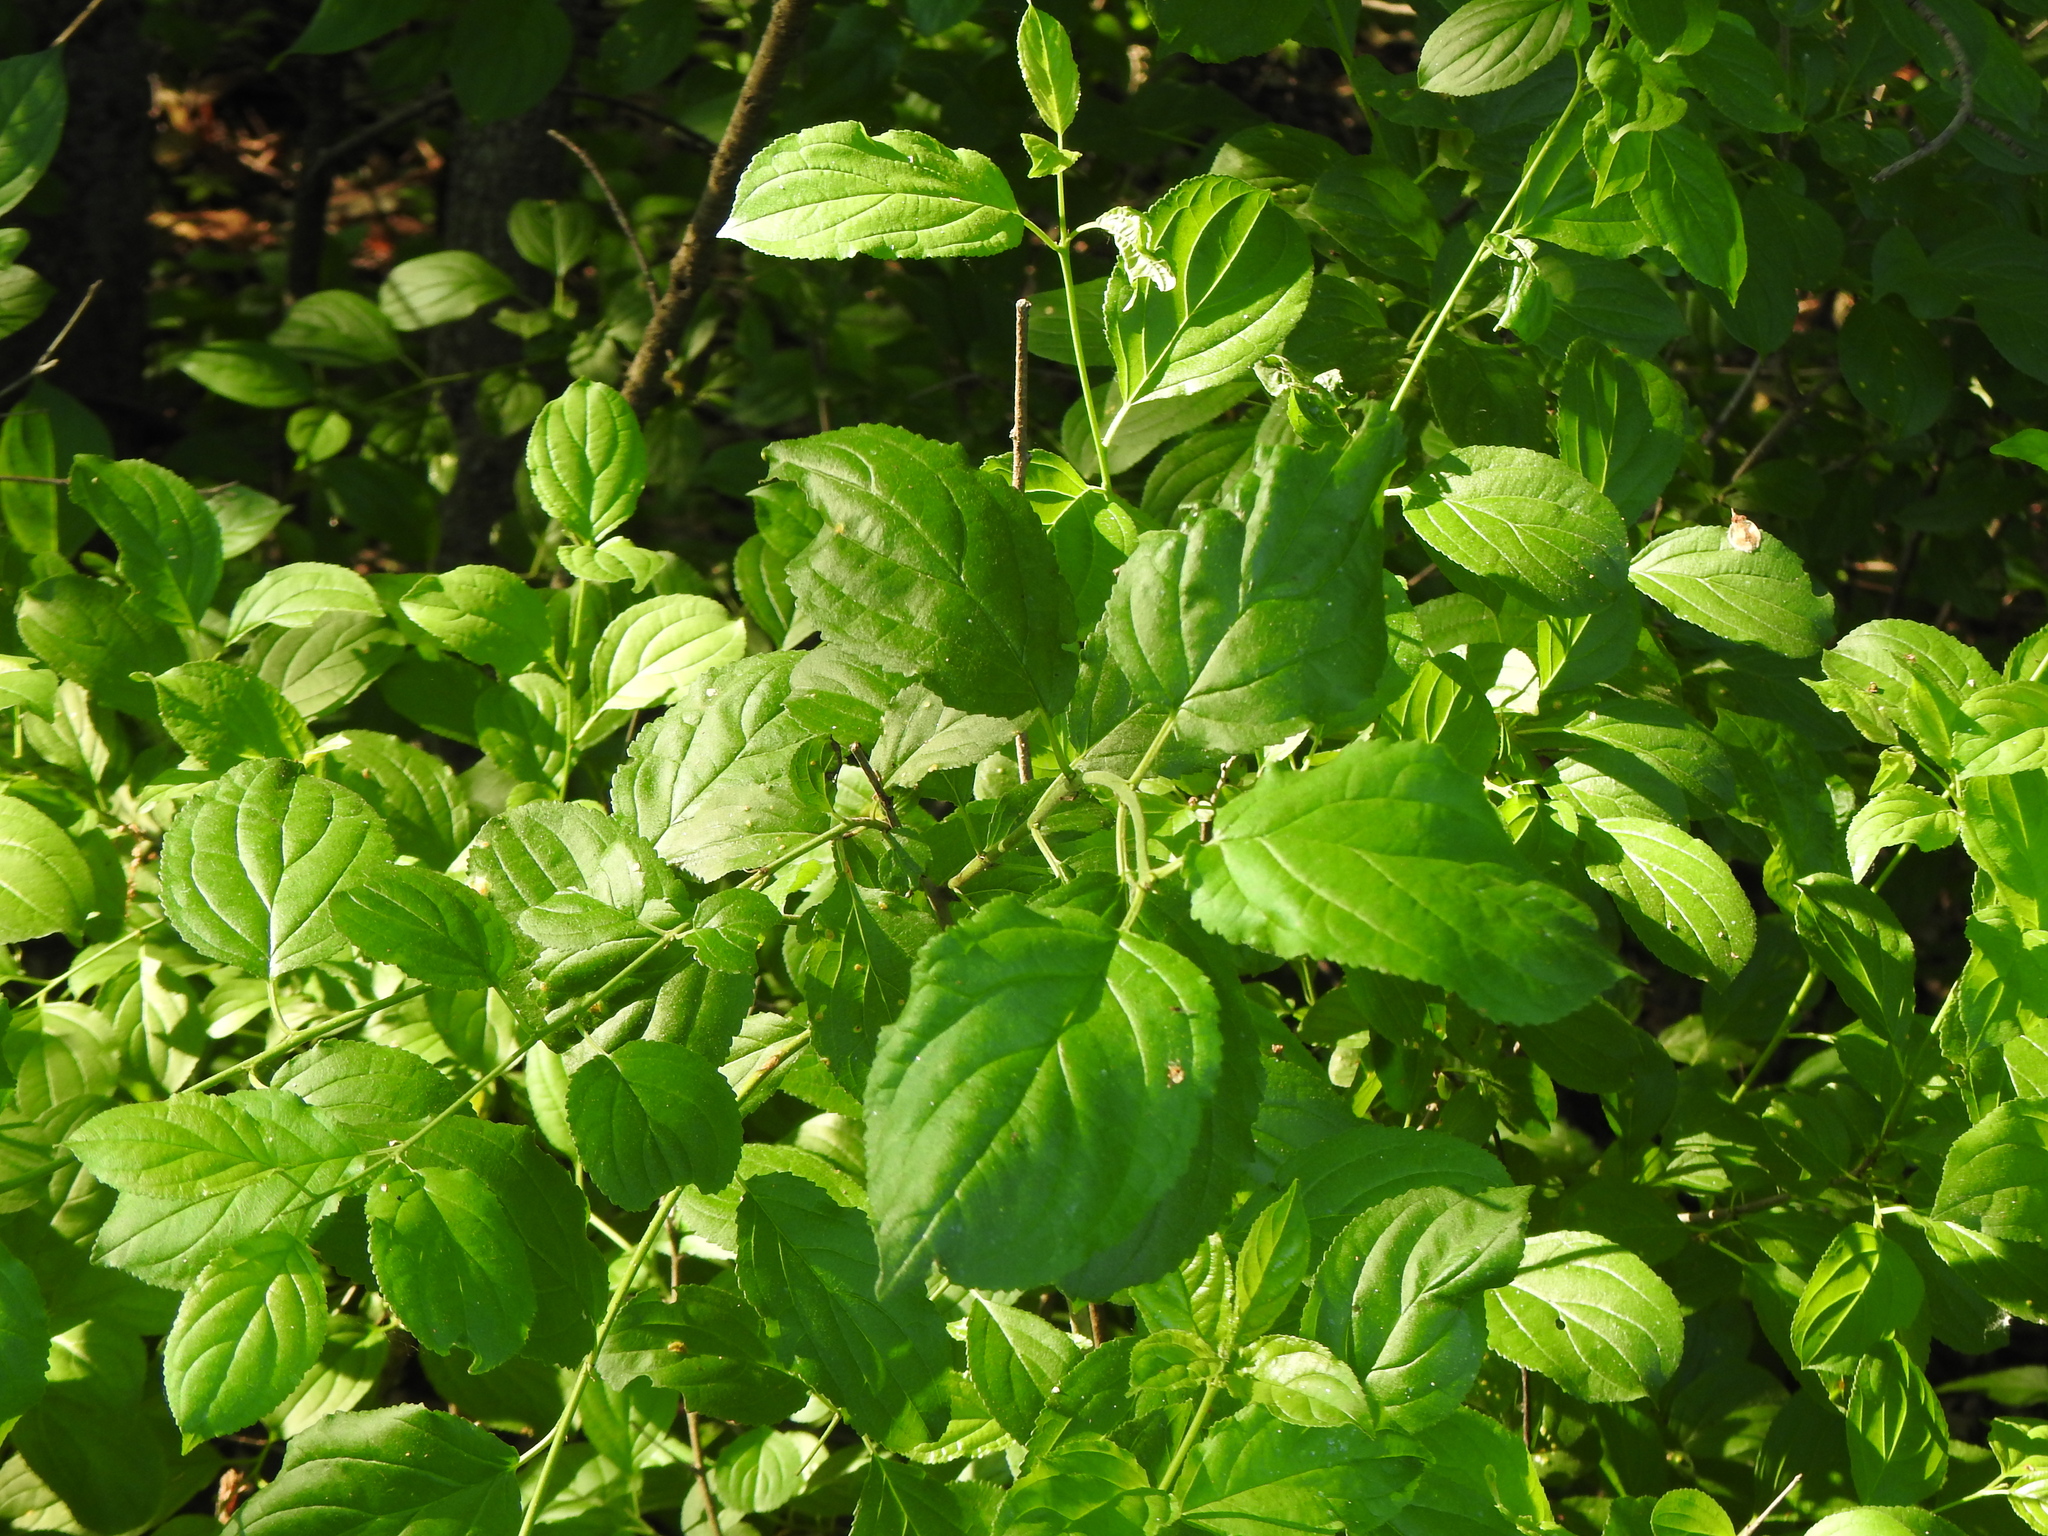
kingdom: Plantae
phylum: Tracheophyta
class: Magnoliopsida
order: Rosales
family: Rhamnaceae
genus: Rhamnus
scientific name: Rhamnus cathartica
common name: Common buckthorn
